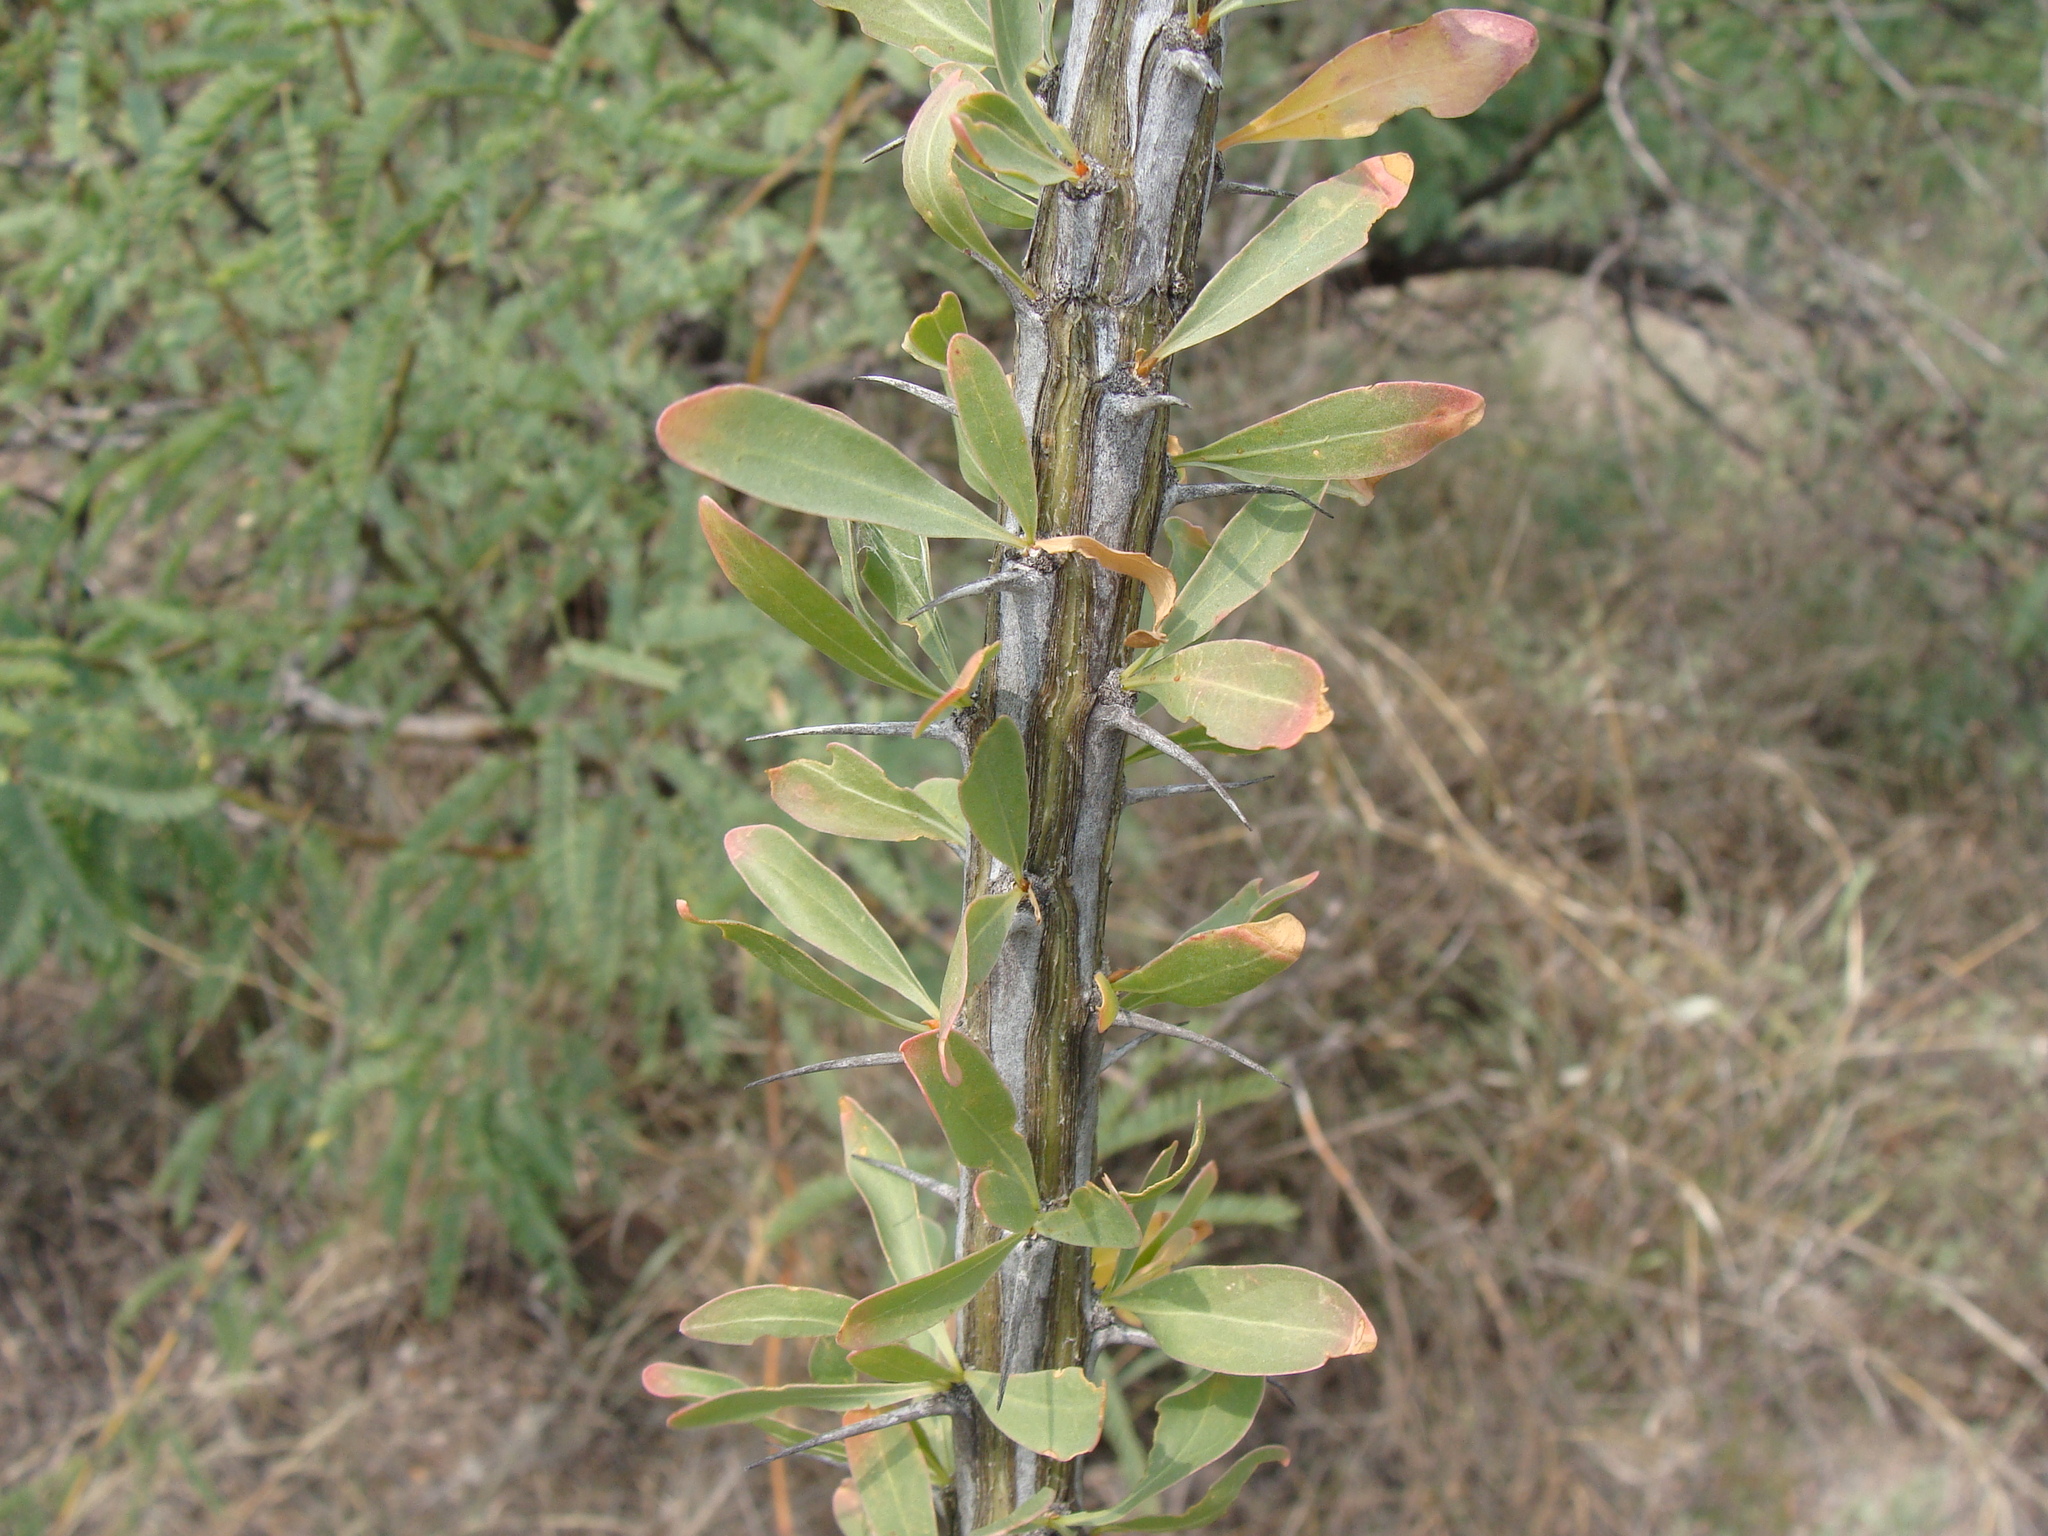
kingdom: Plantae
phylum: Tracheophyta
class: Magnoliopsida
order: Ericales
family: Fouquieriaceae
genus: Fouquieria
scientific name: Fouquieria splendens
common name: Vine-cactus
